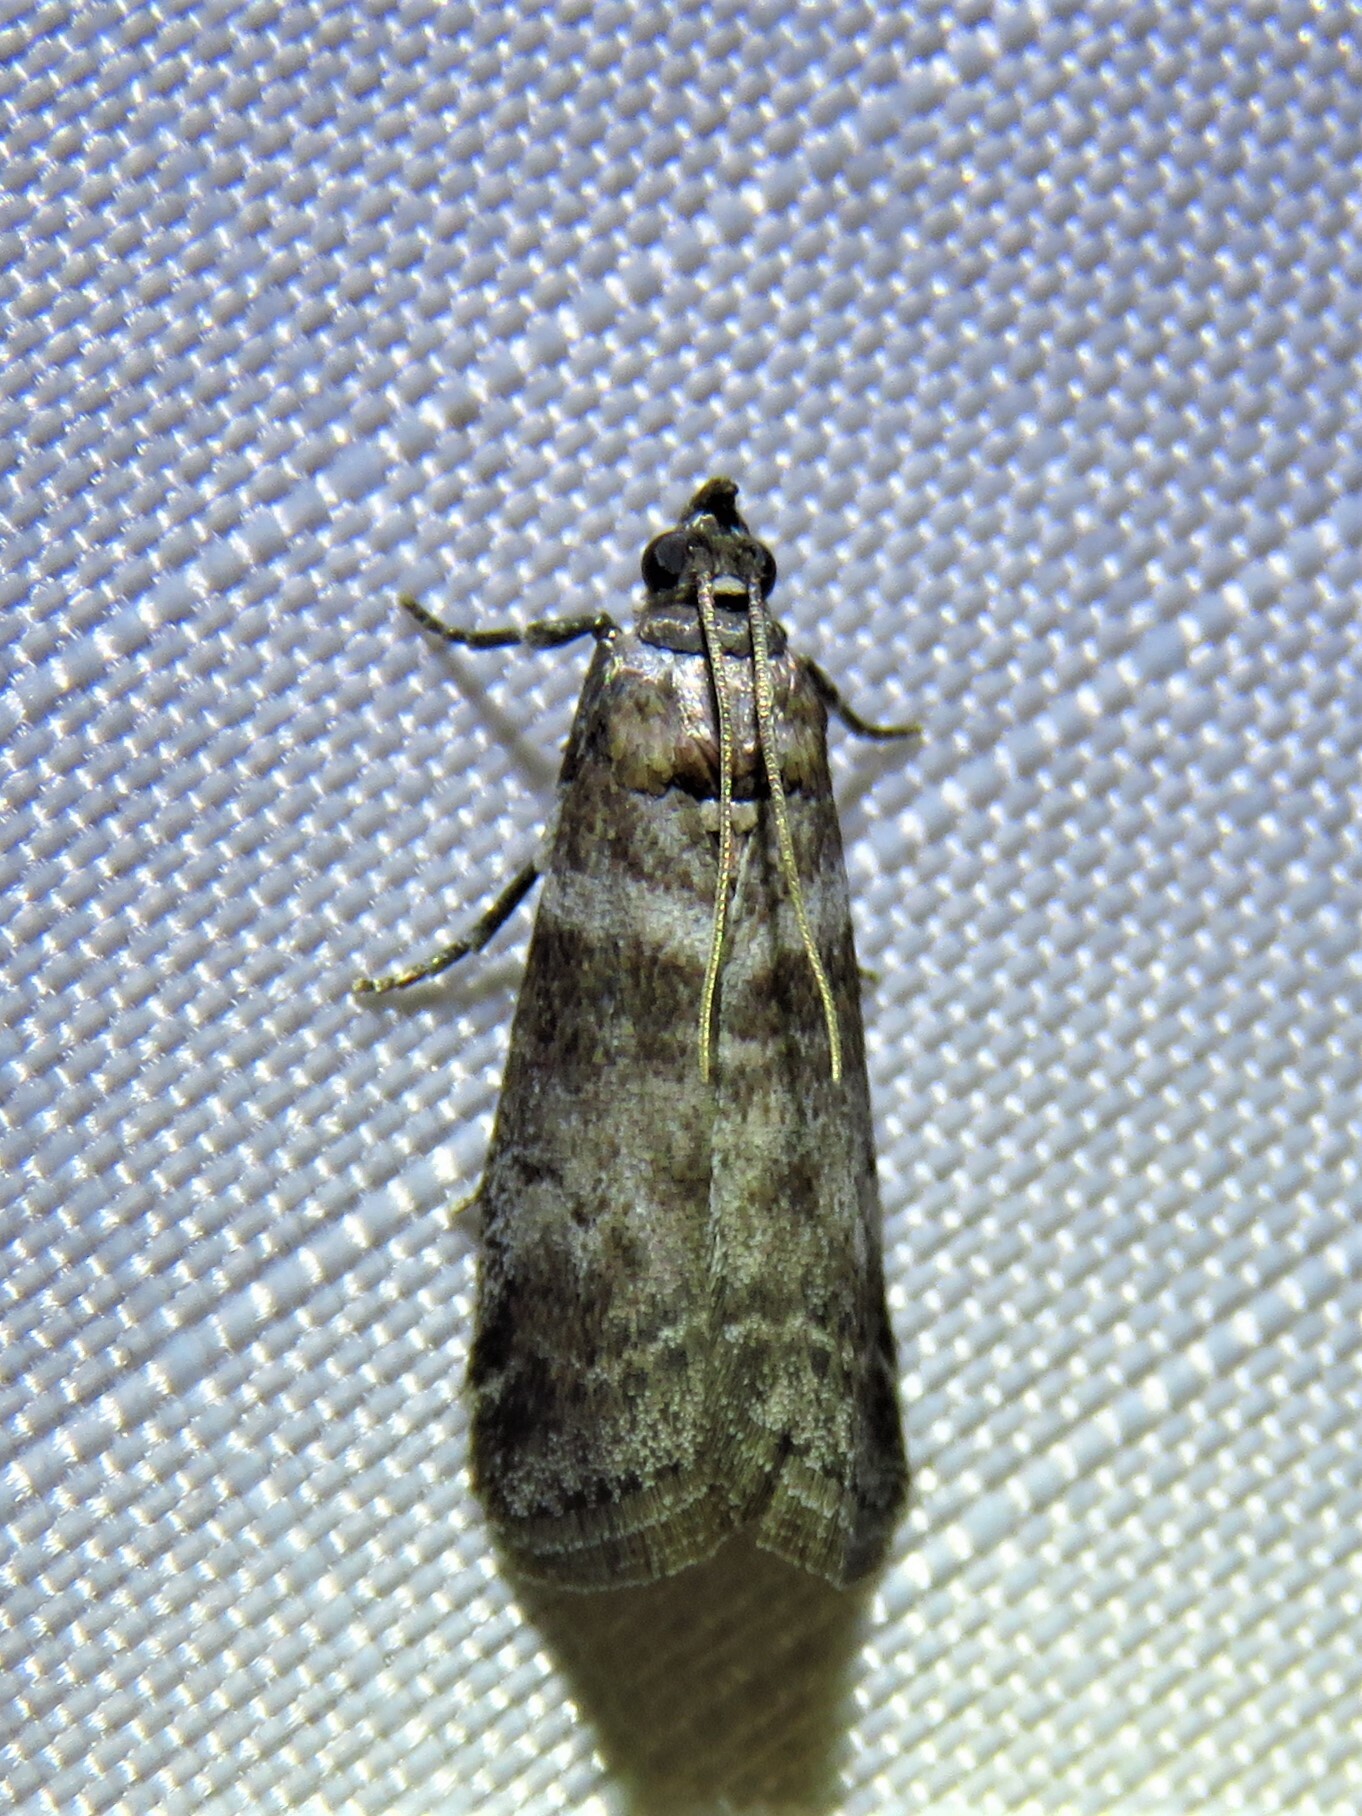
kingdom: Animalia
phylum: Arthropoda
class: Insecta
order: Lepidoptera
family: Pyralidae
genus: Sciota
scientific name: Sciota uvinella
